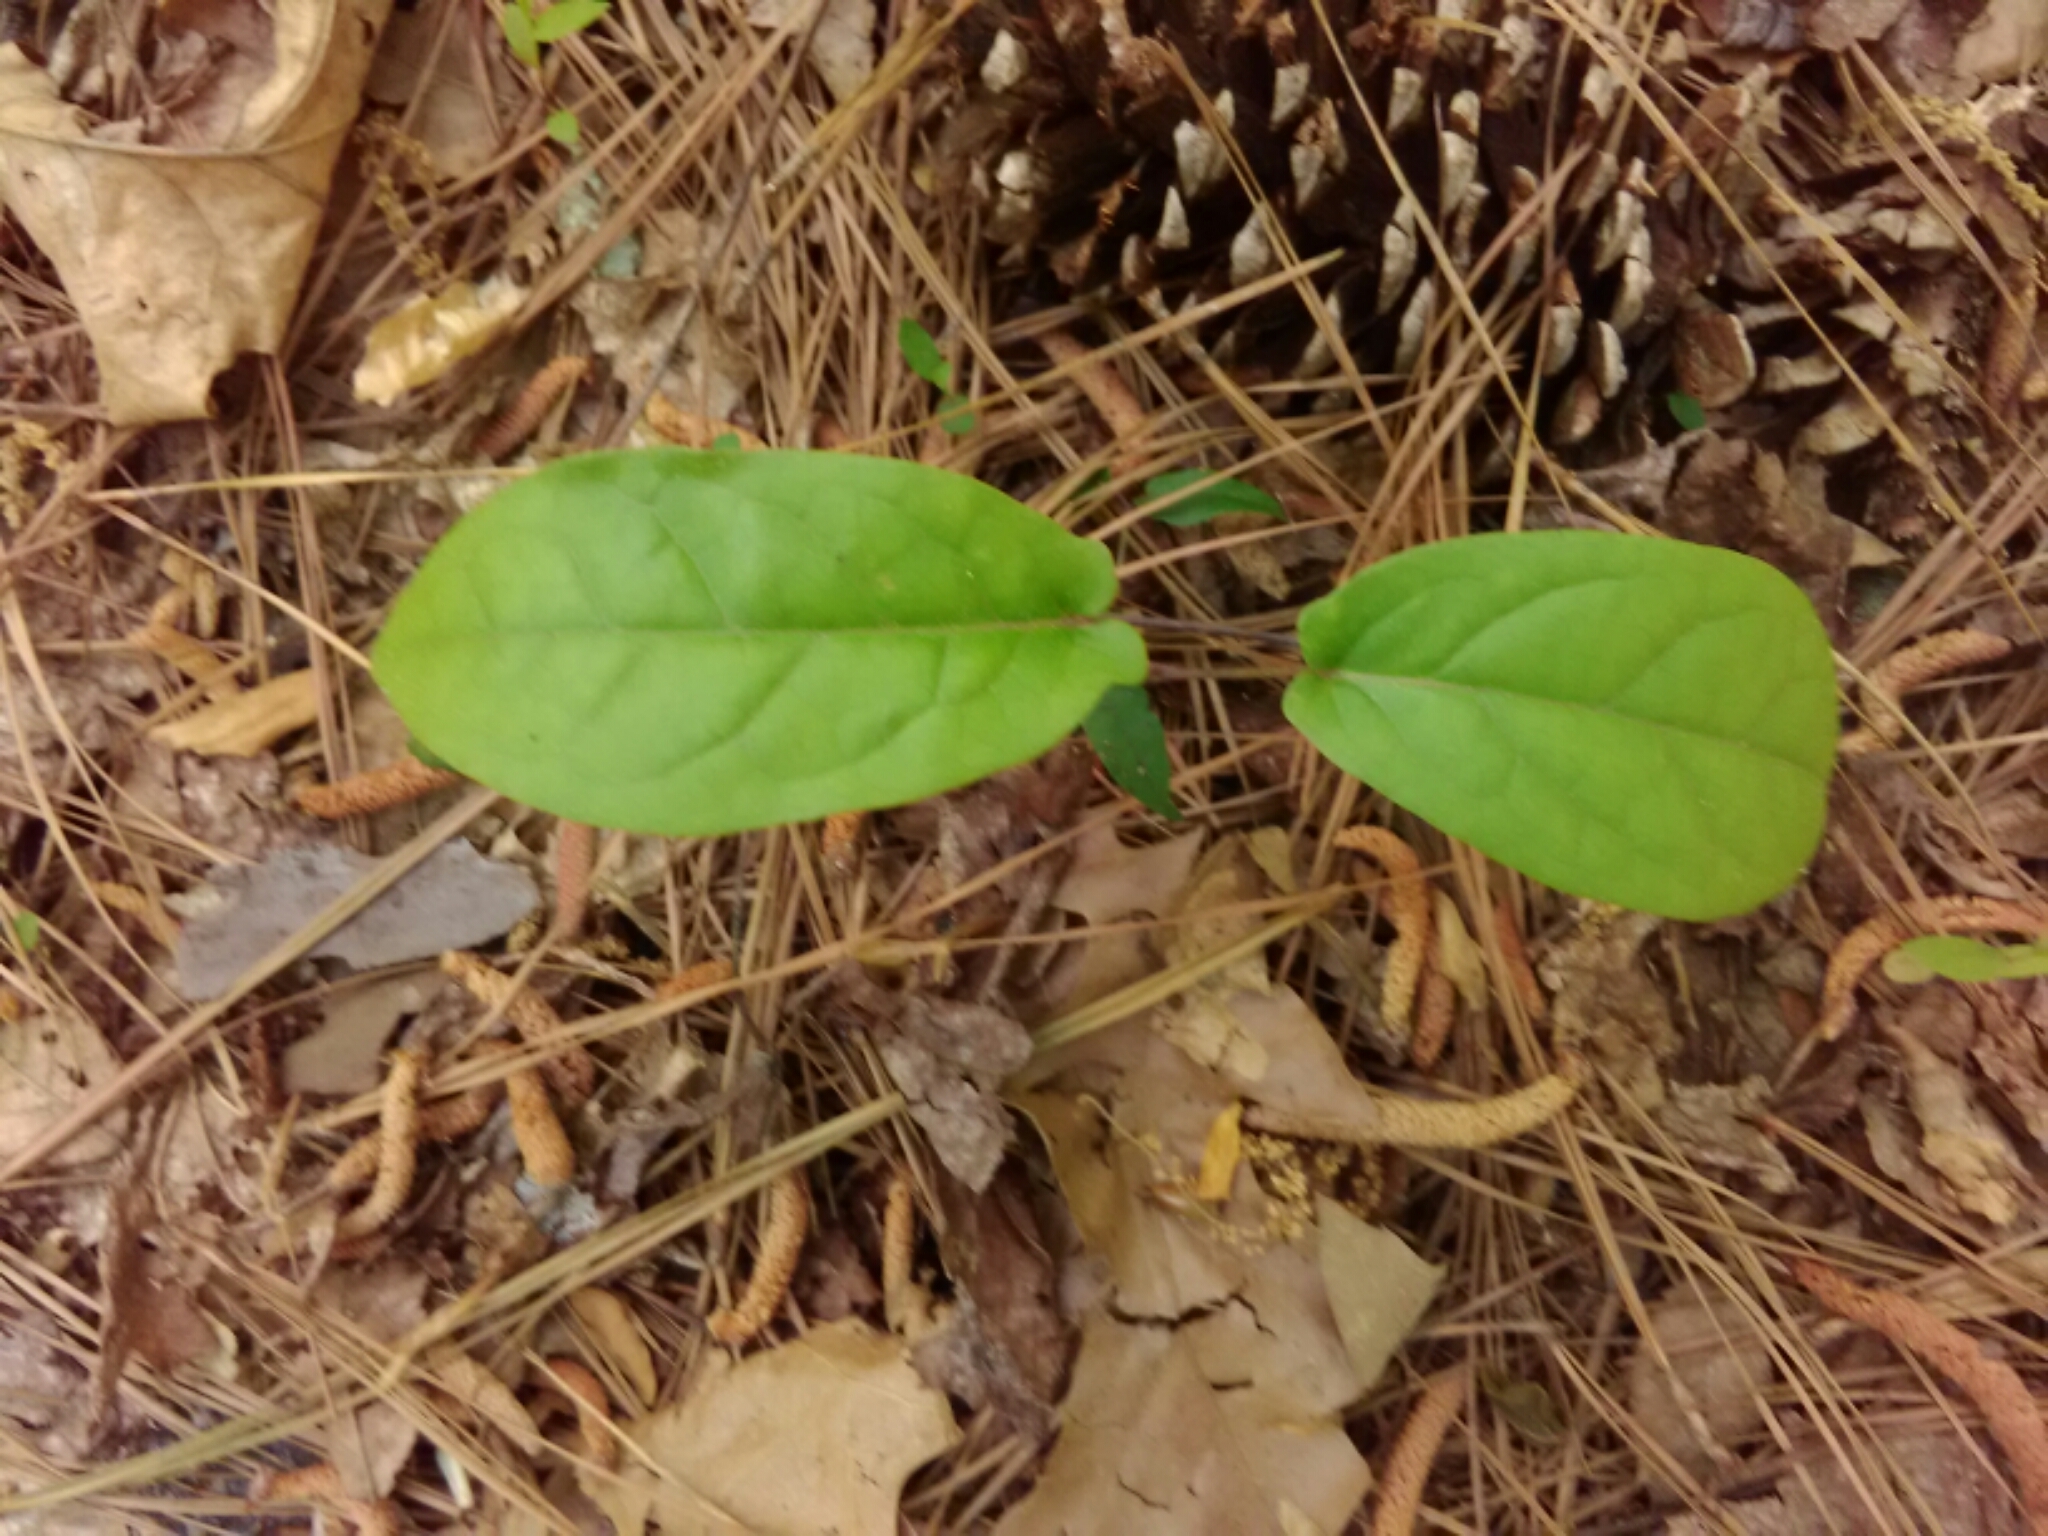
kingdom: Plantae
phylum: Tracheophyta
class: Magnoliopsida
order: Lamiales
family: Bignoniaceae
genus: Bignonia
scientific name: Bignonia capreolata
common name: Crossvine
